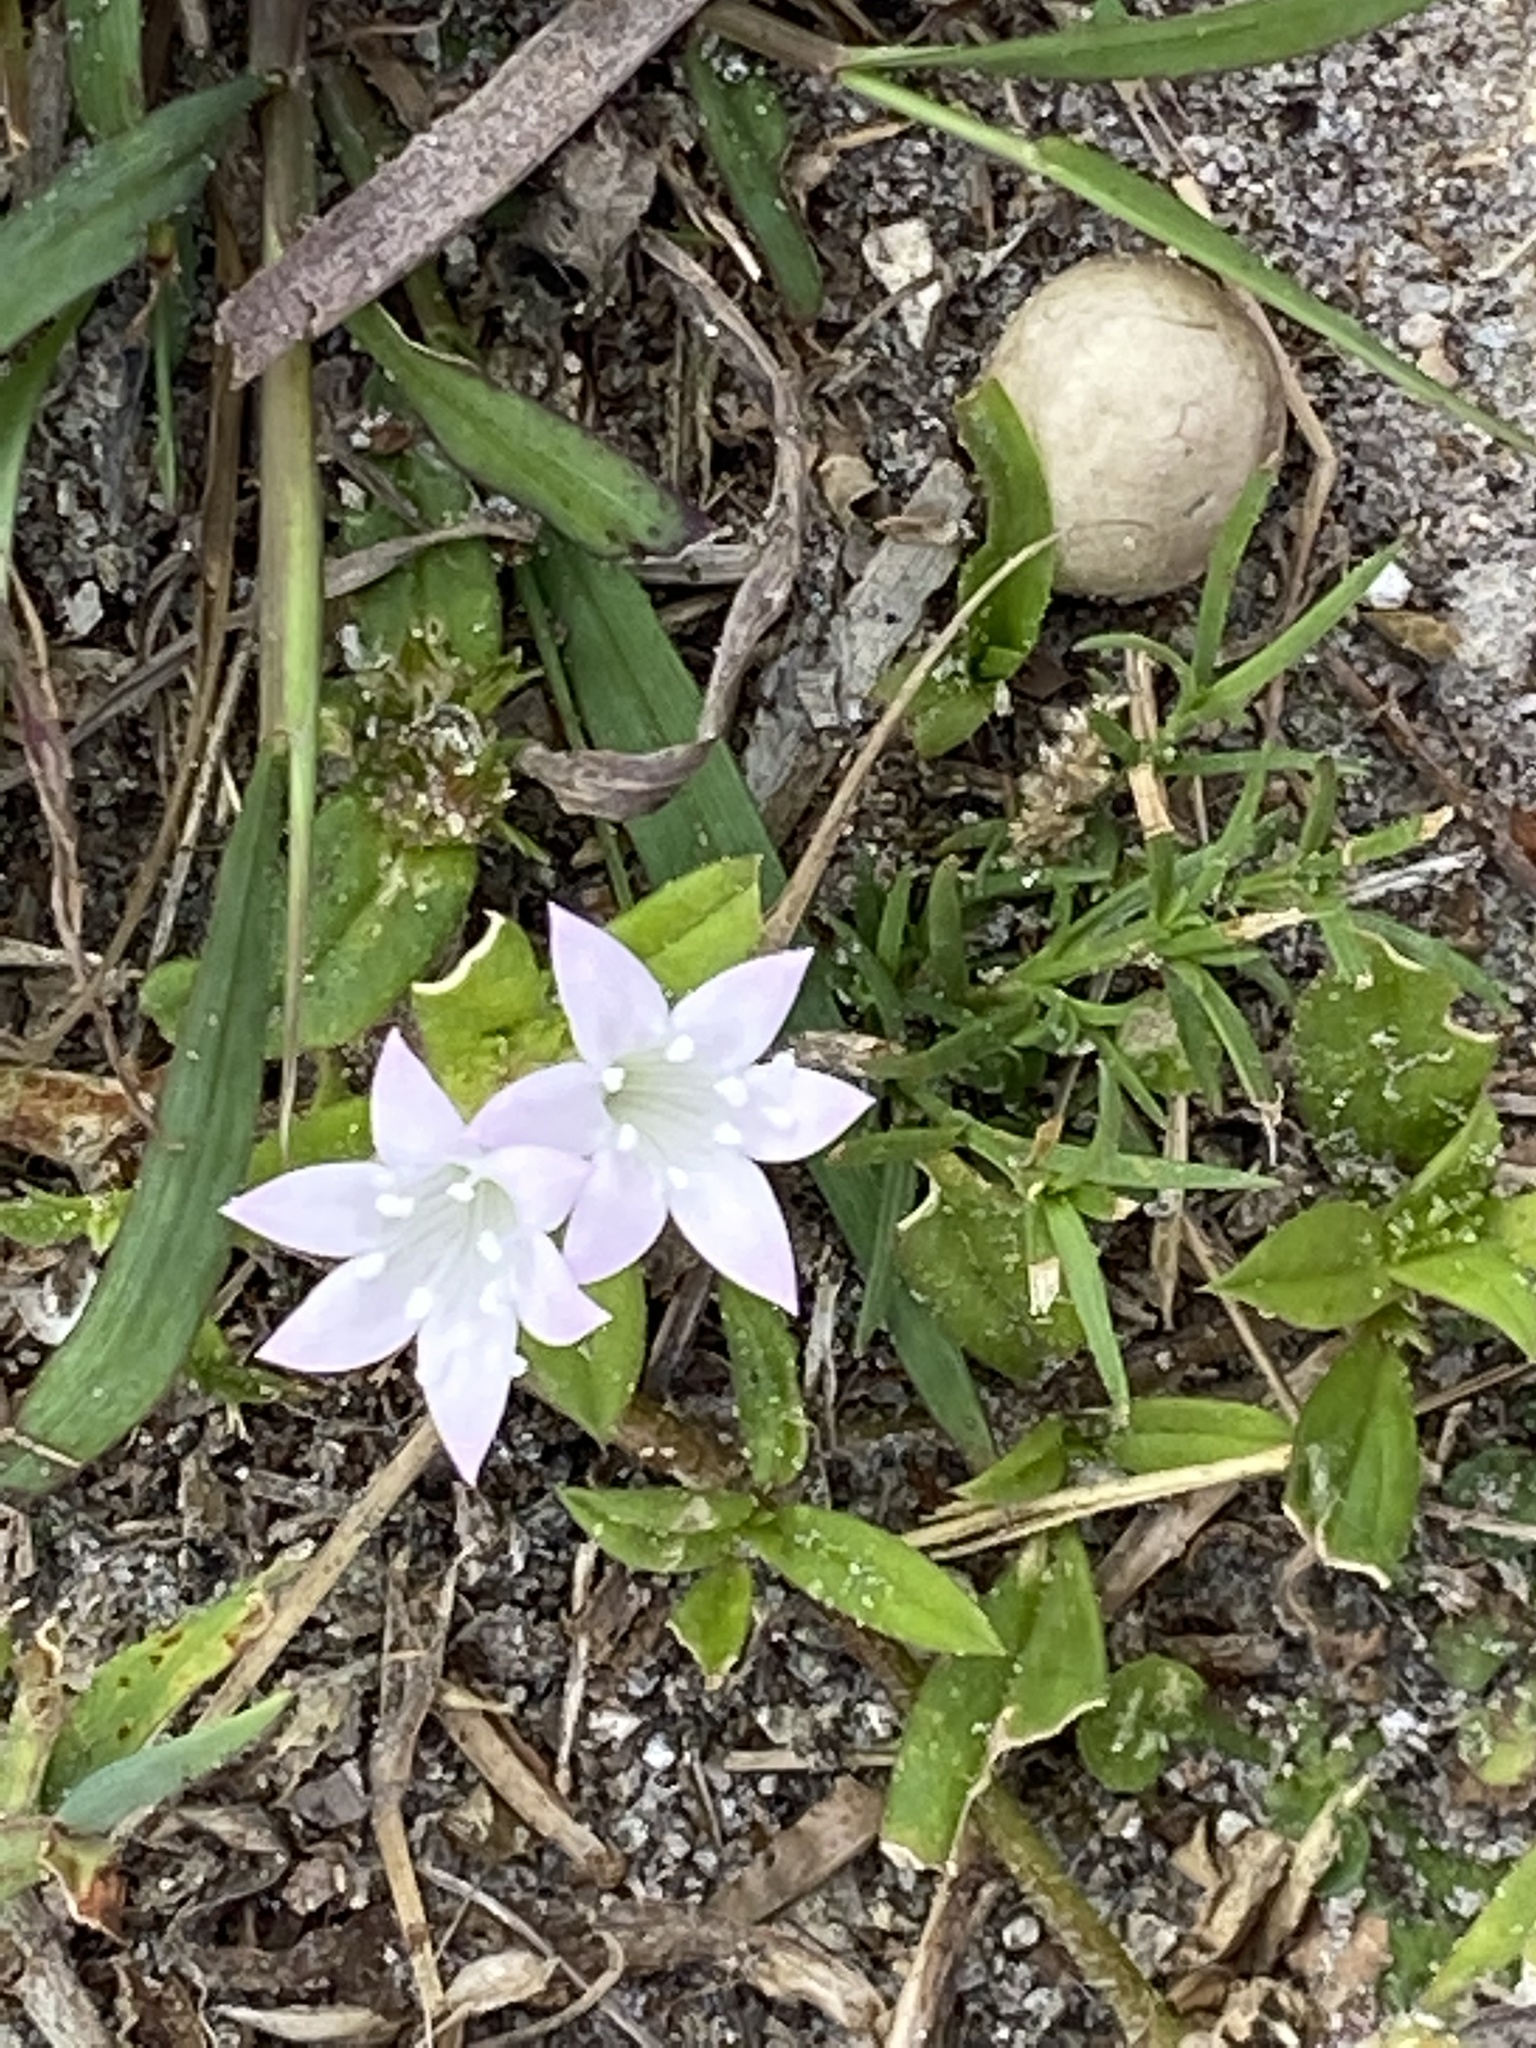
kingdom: Plantae
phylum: Tracheophyta
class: Magnoliopsida
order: Gentianales
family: Rubiaceae
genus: Richardia
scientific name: Richardia grandiflora
